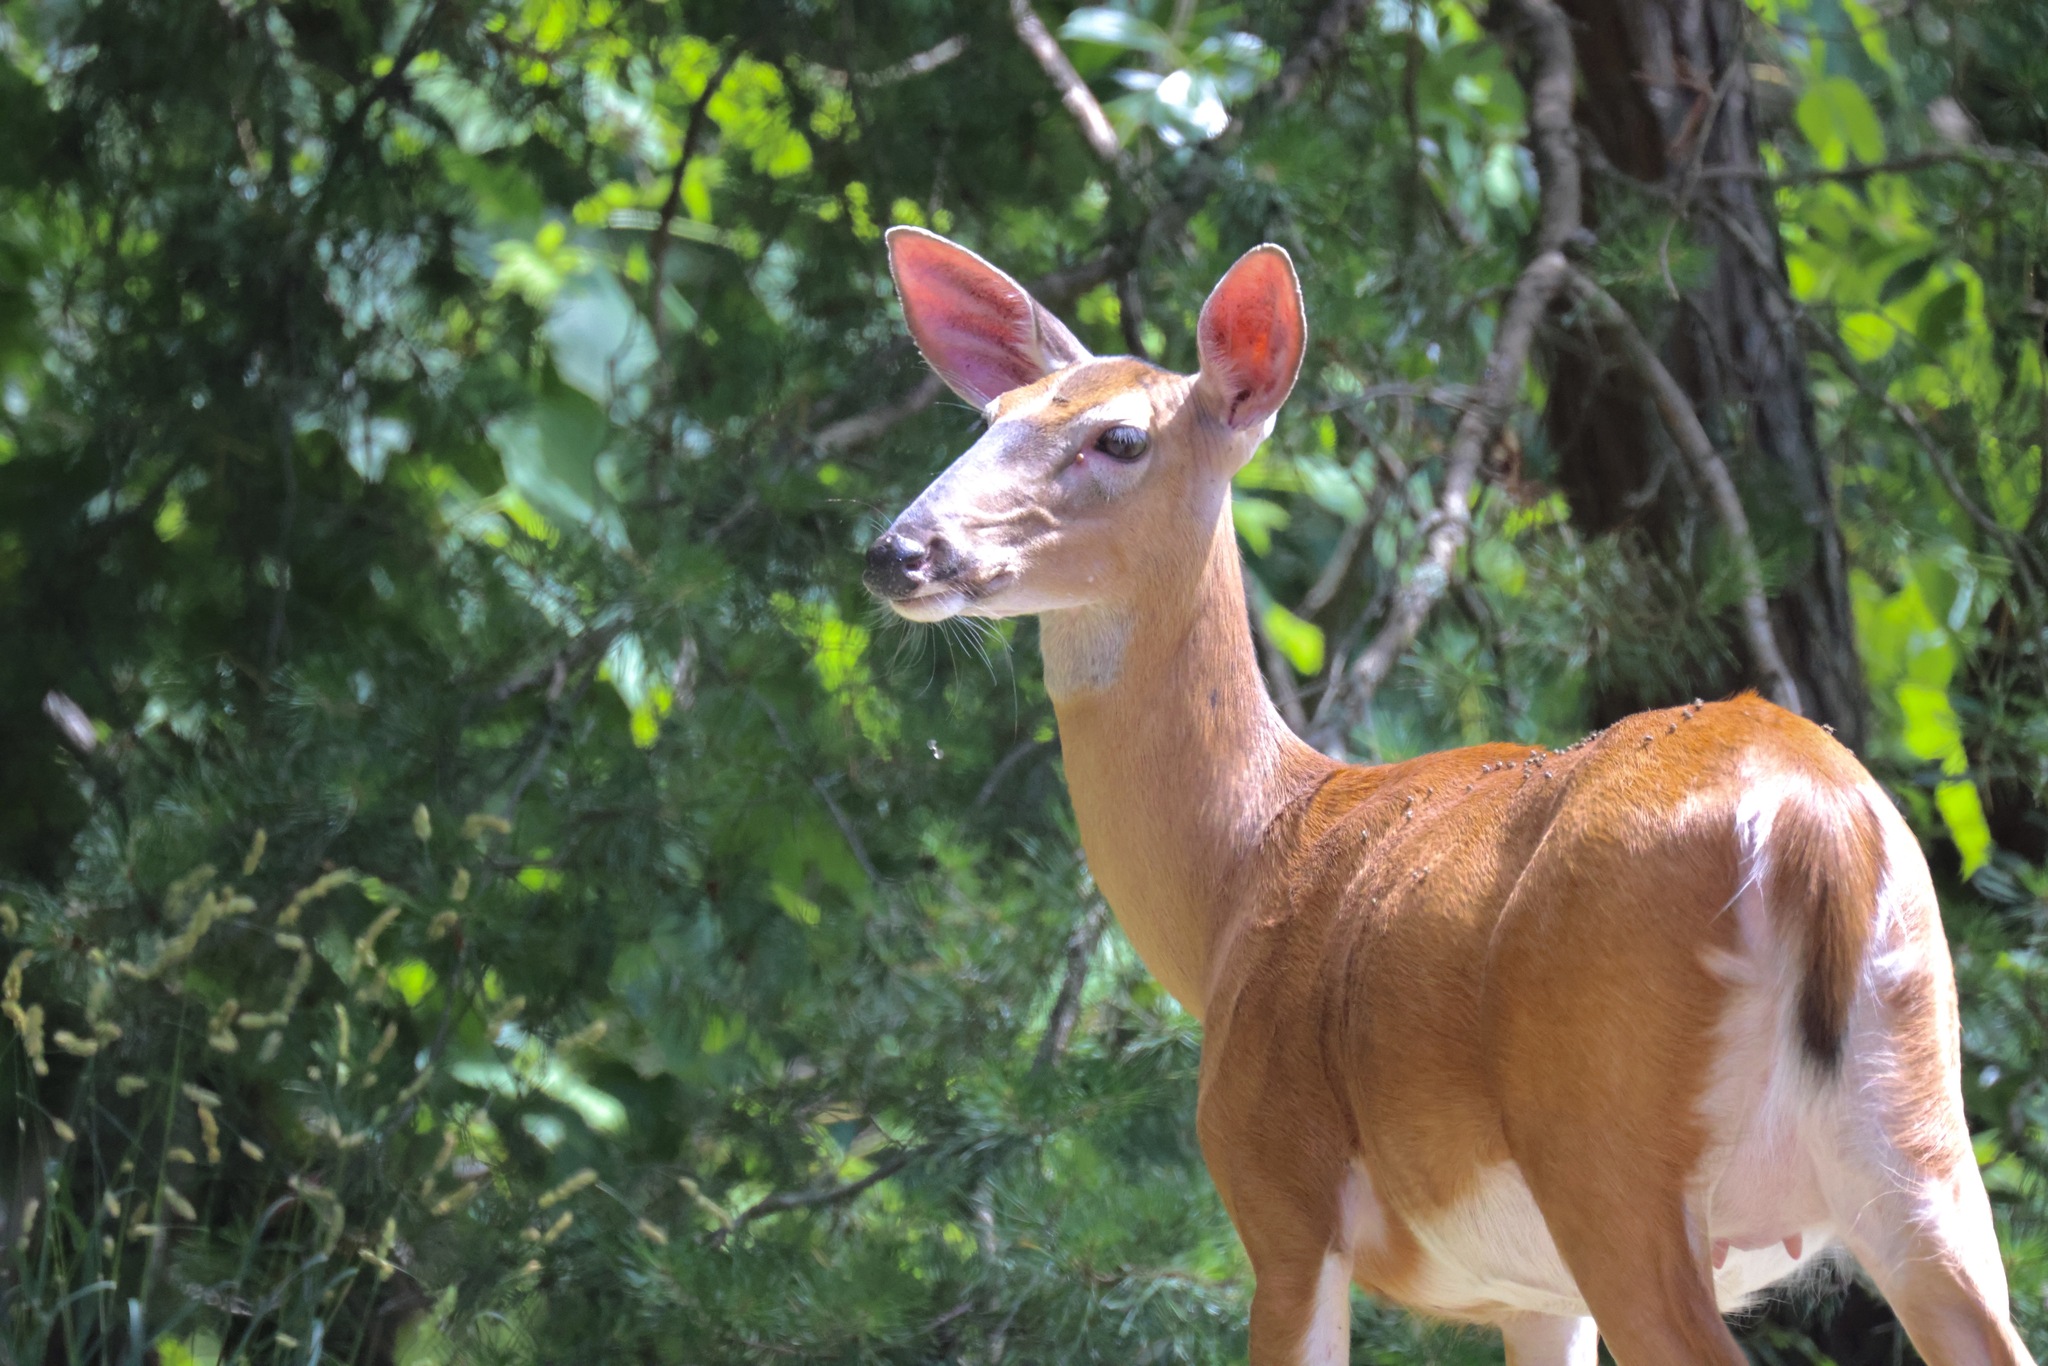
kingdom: Animalia
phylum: Chordata
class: Mammalia
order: Artiodactyla
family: Cervidae
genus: Odocoileus
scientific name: Odocoileus virginianus
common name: White-tailed deer
